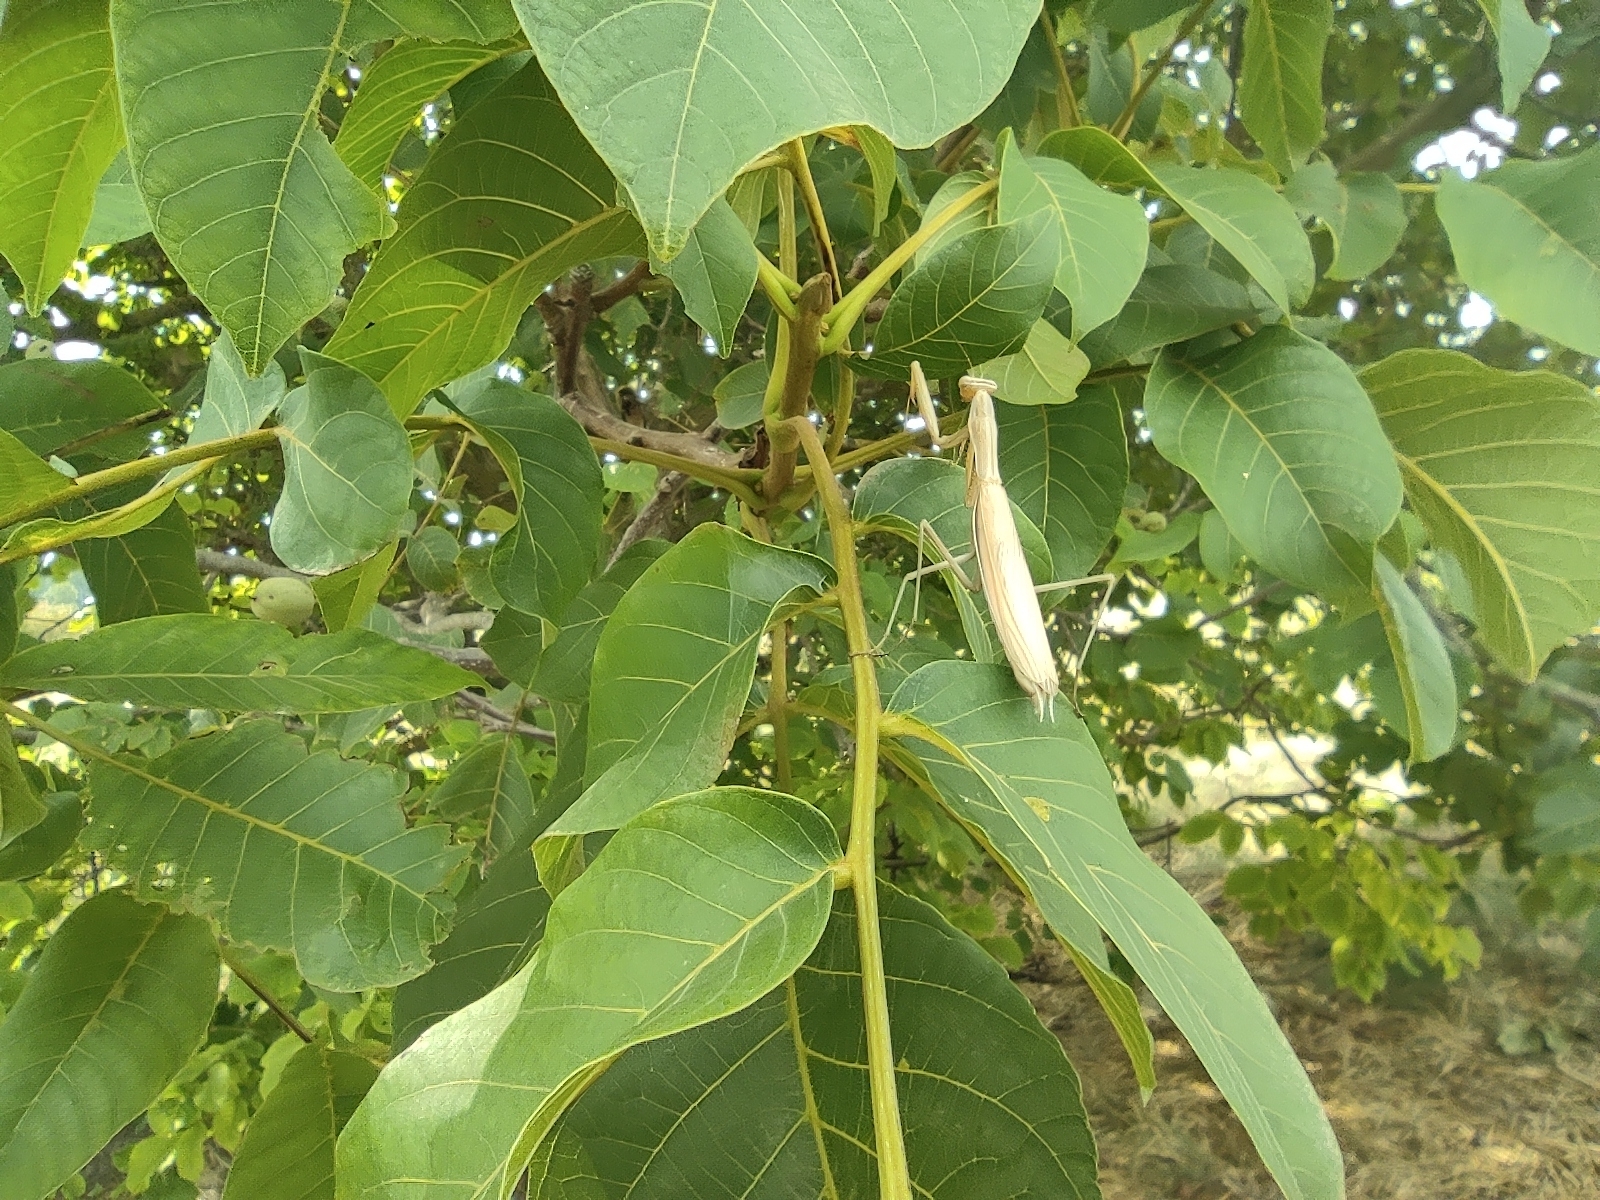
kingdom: Animalia
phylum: Arthropoda
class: Insecta
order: Mantodea
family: Mantidae
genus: Mantis
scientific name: Mantis religiosa
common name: Praying mantis
